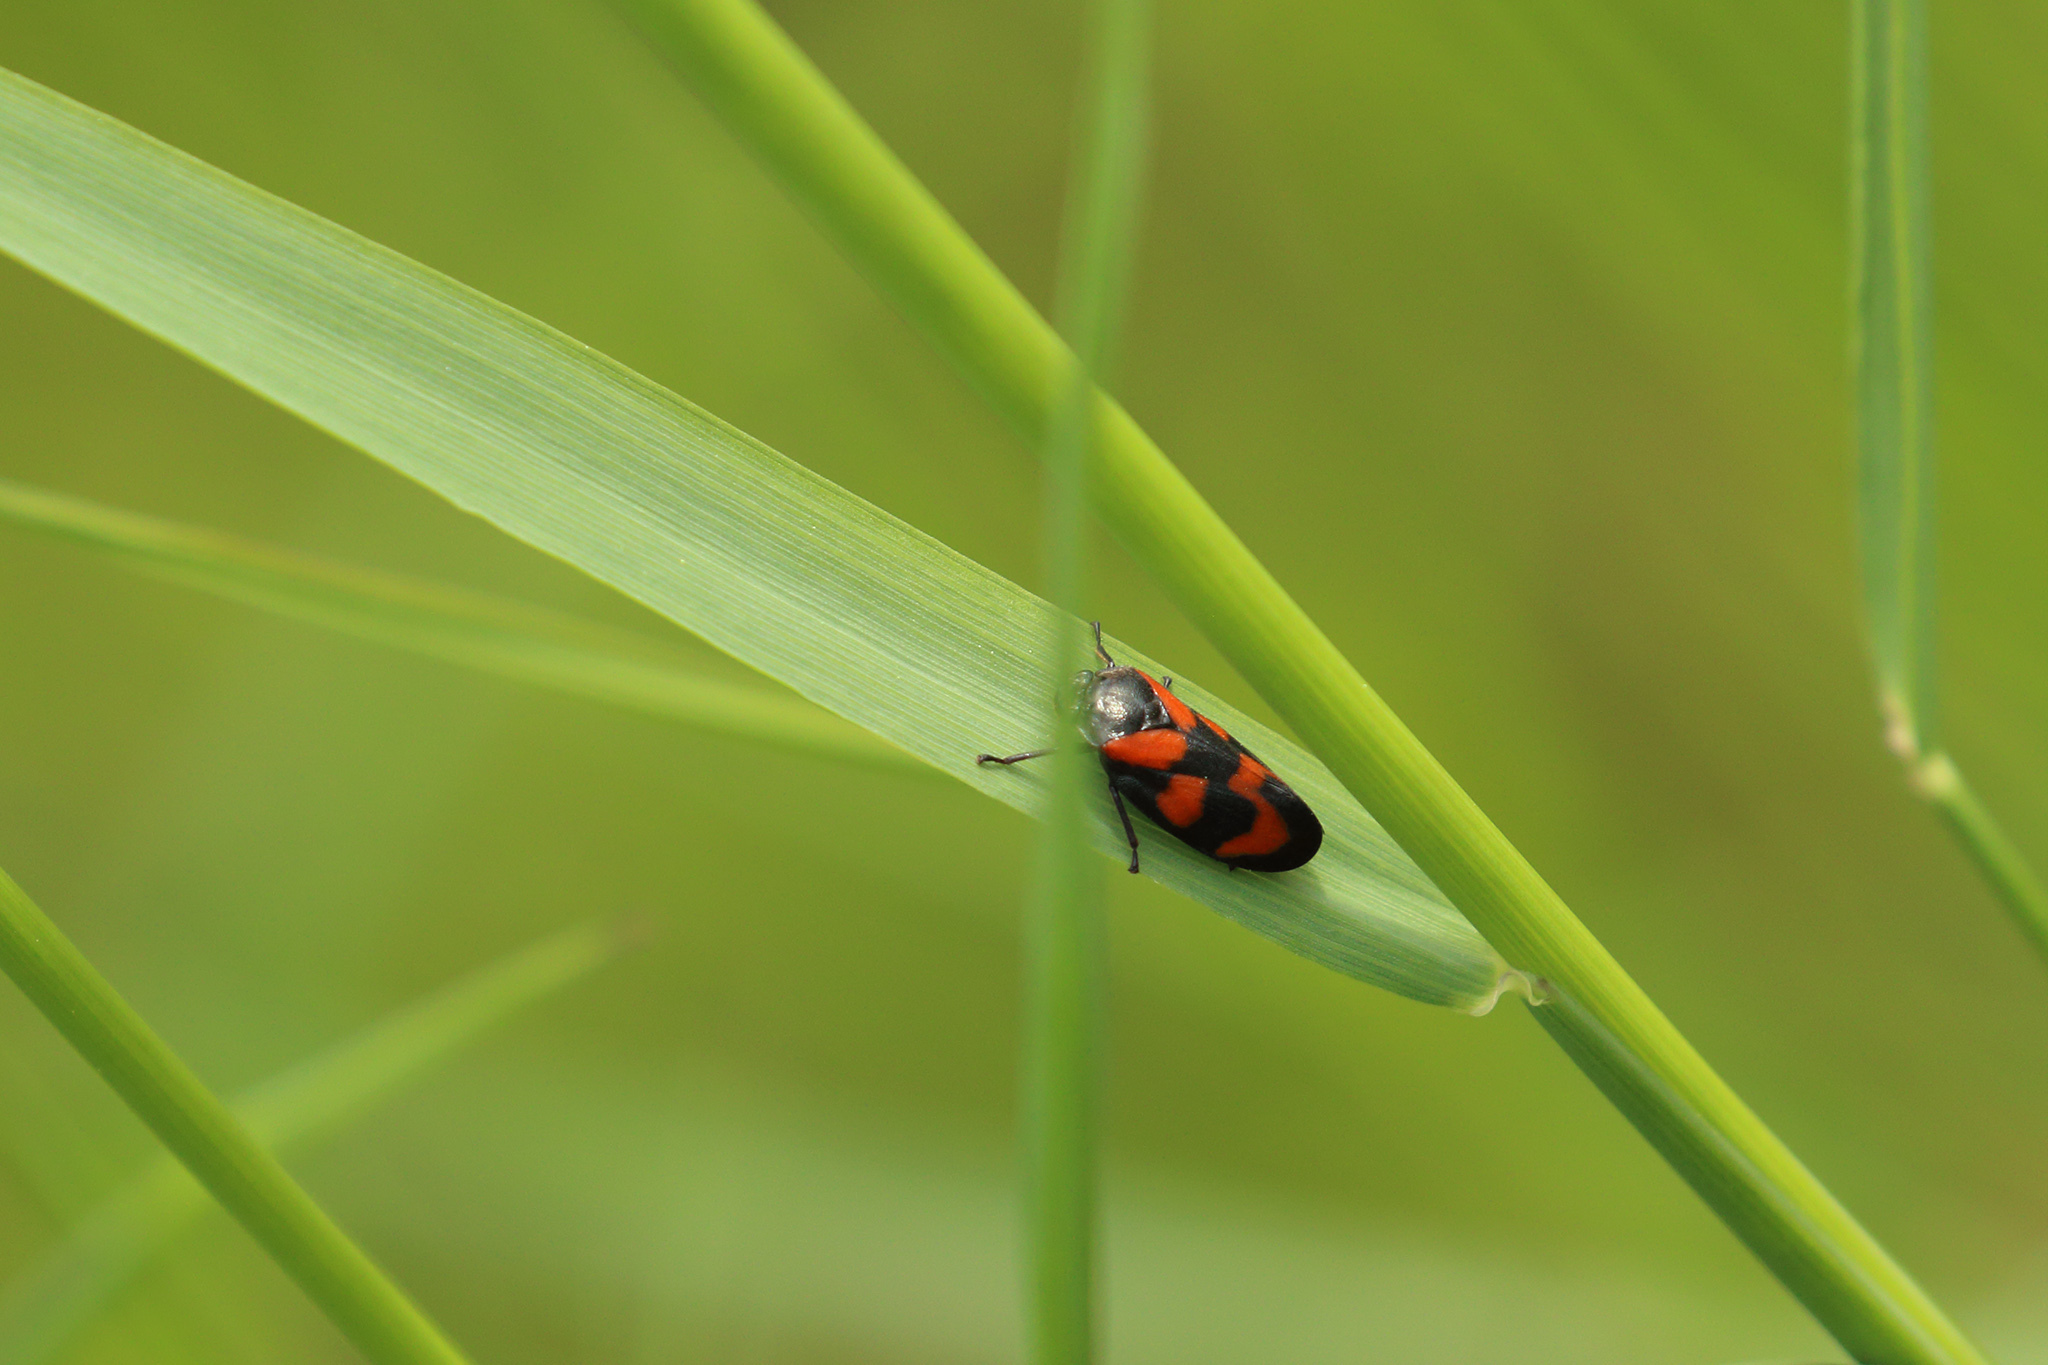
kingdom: Animalia
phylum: Arthropoda
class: Insecta
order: Hemiptera
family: Cercopidae
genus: Cercopis
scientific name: Cercopis vulnerata
